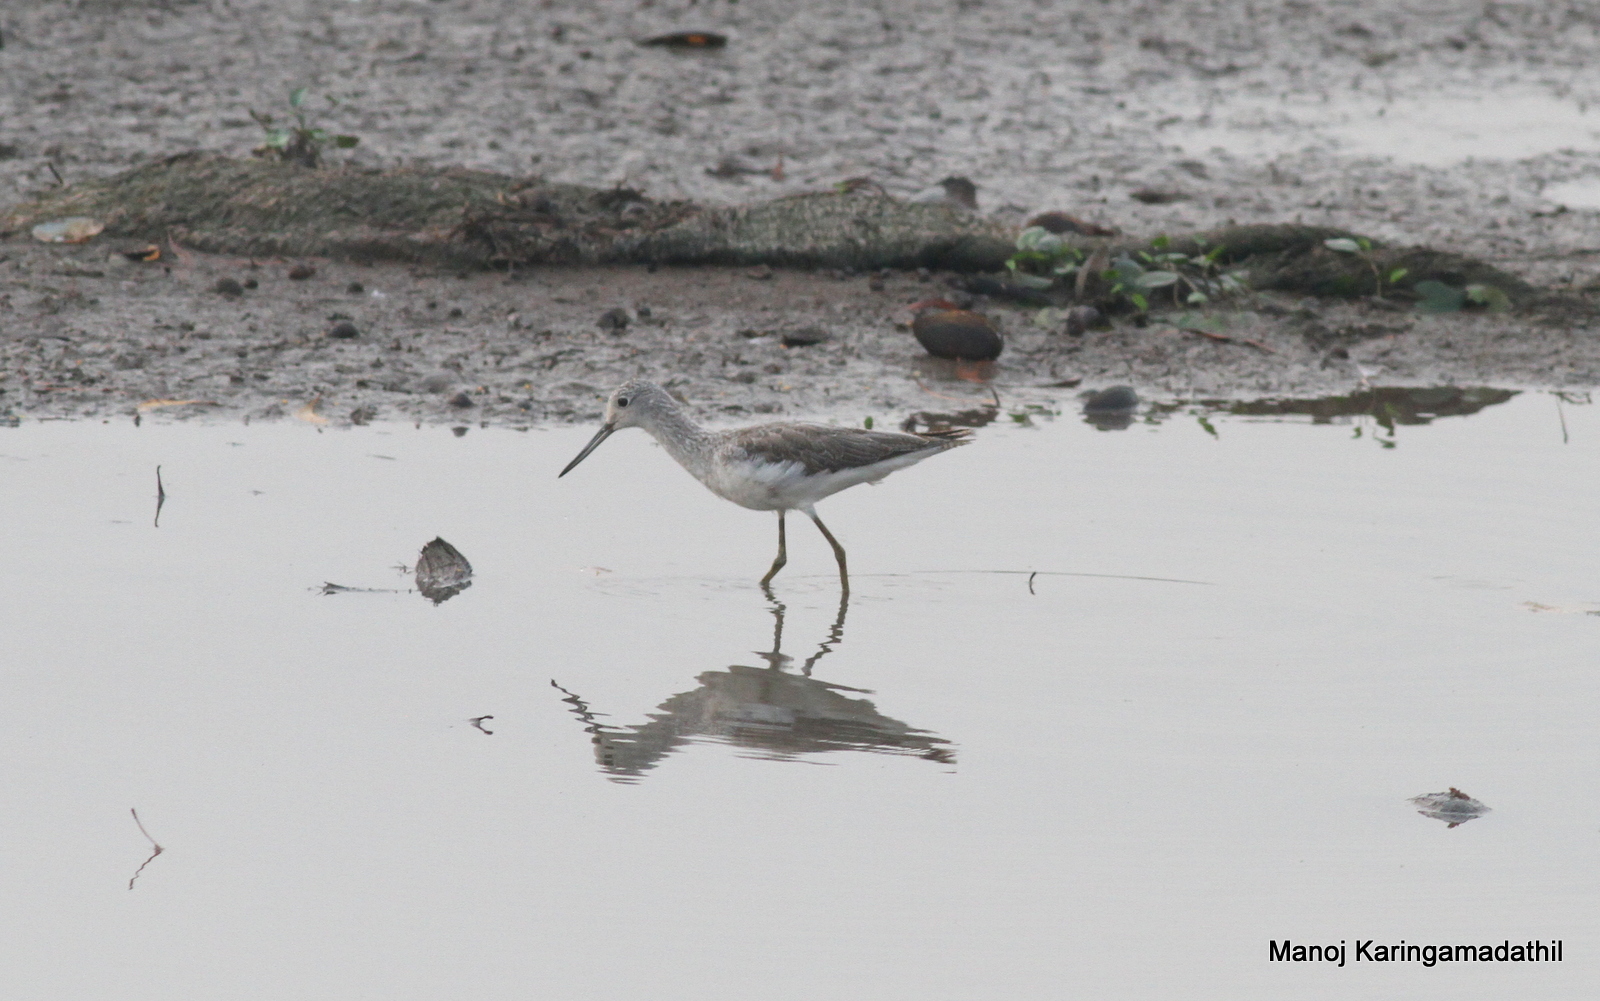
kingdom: Animalia
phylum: Chordata
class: Aves
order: Charadriiformes
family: Scolopacidae
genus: Tringa
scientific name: Tringa nebularia
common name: Common greenshank
